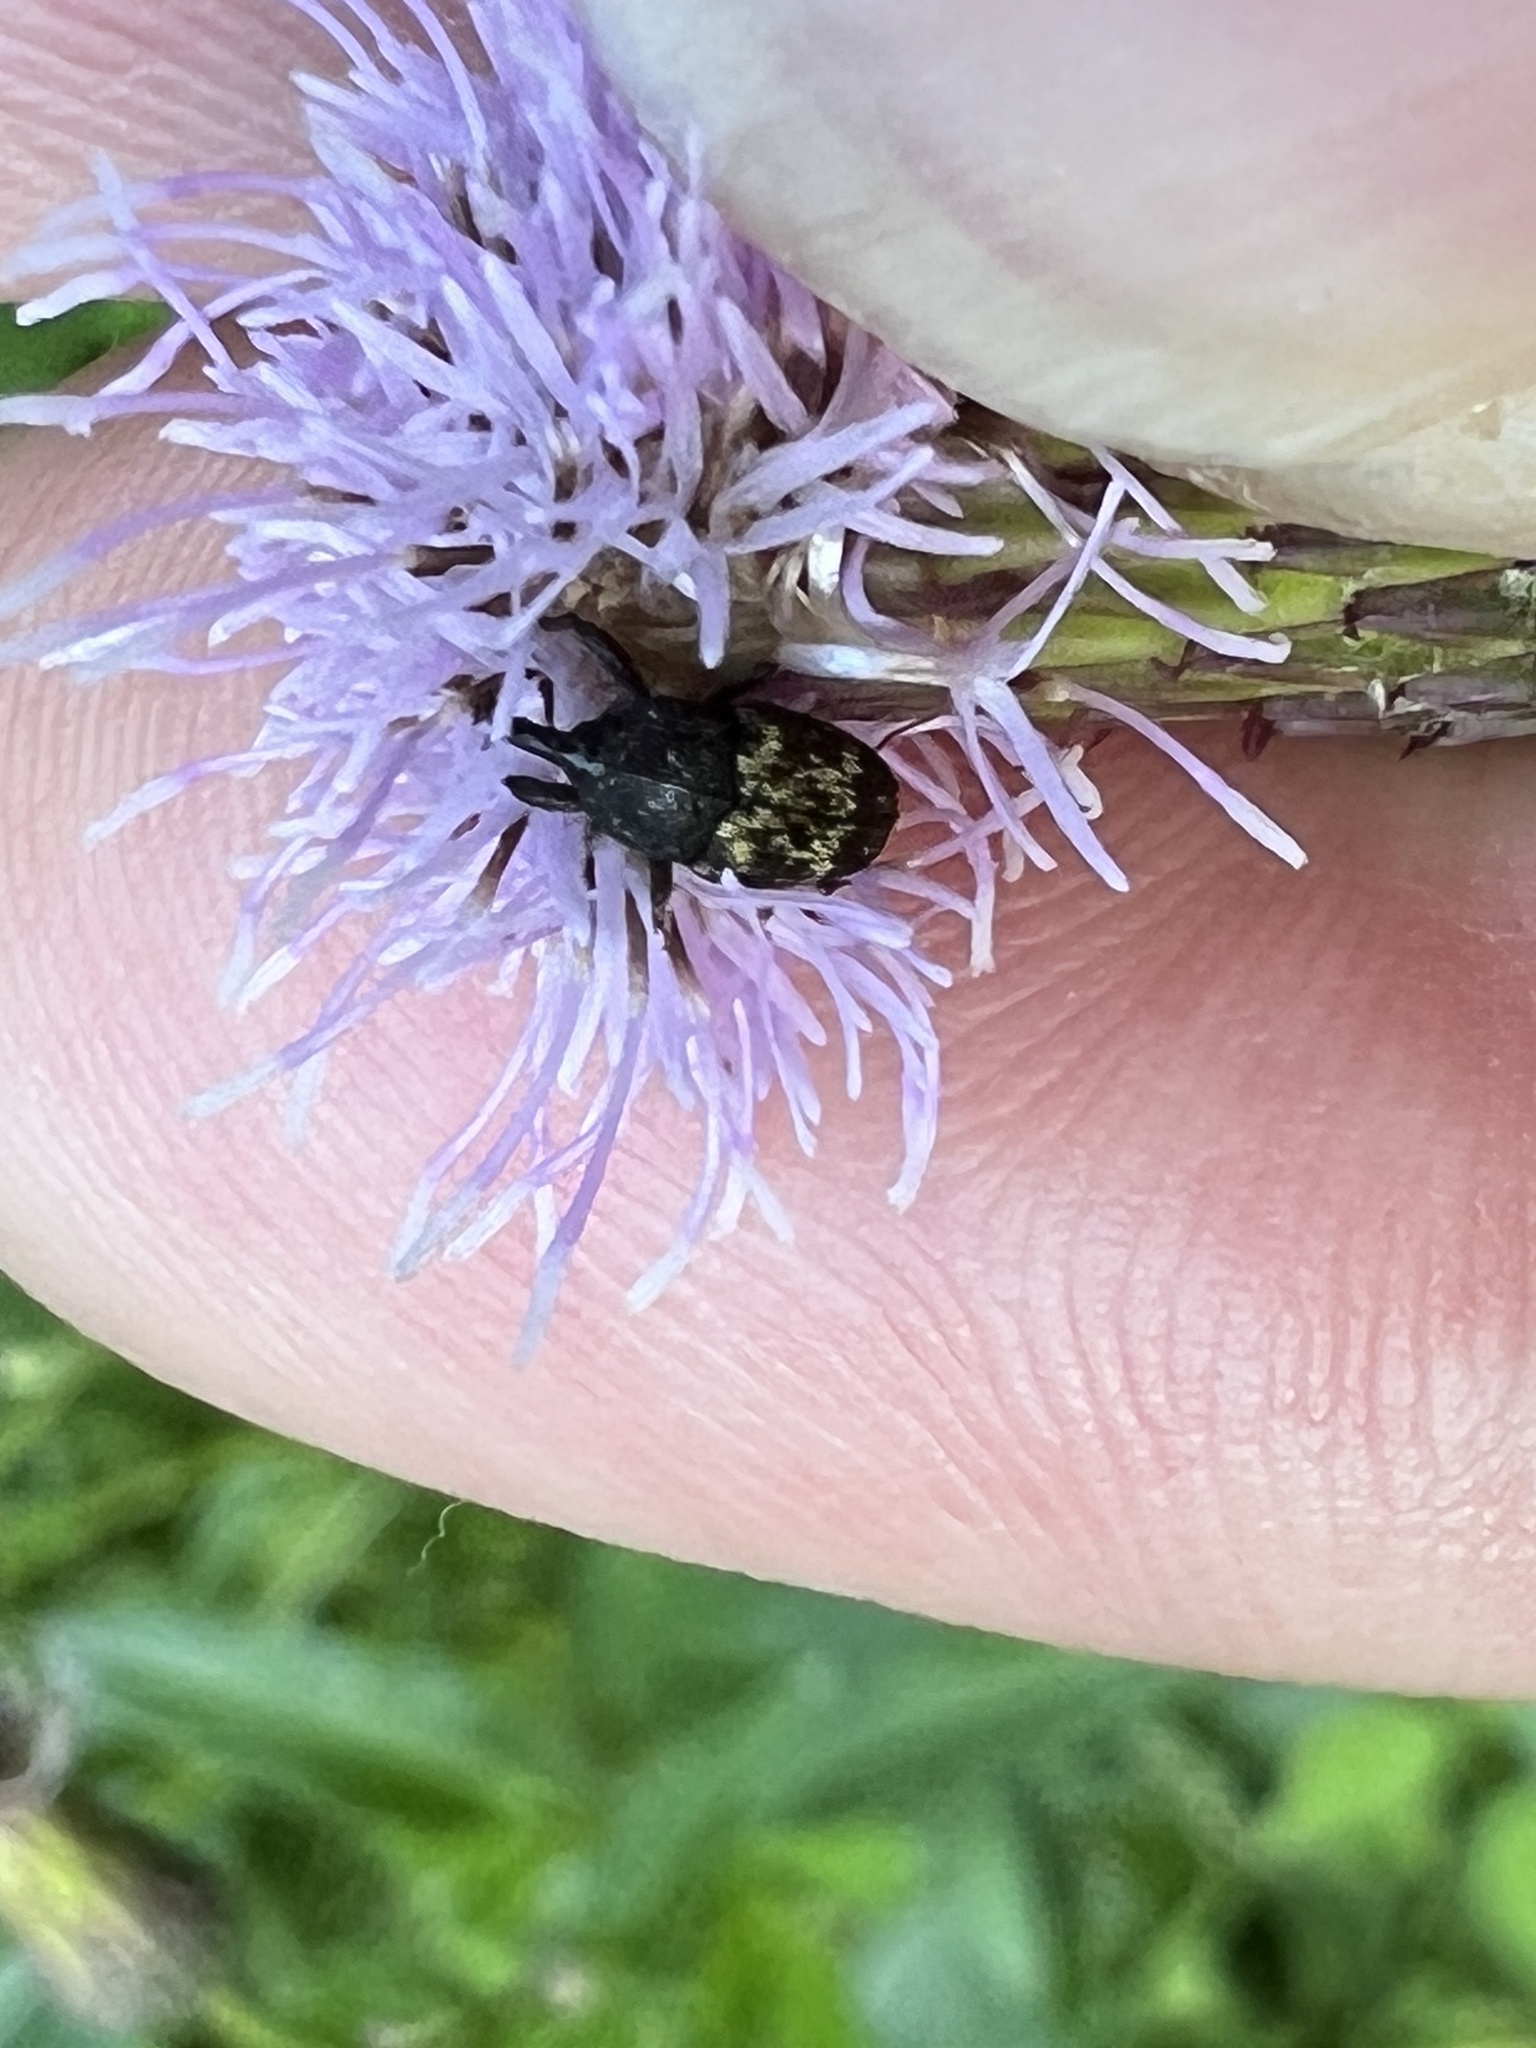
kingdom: Animalia
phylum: Arthropoda
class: Insecta
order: Coleoptera
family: Curculionidae
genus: Glyptobaris
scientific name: Glyptobaris lecontei
